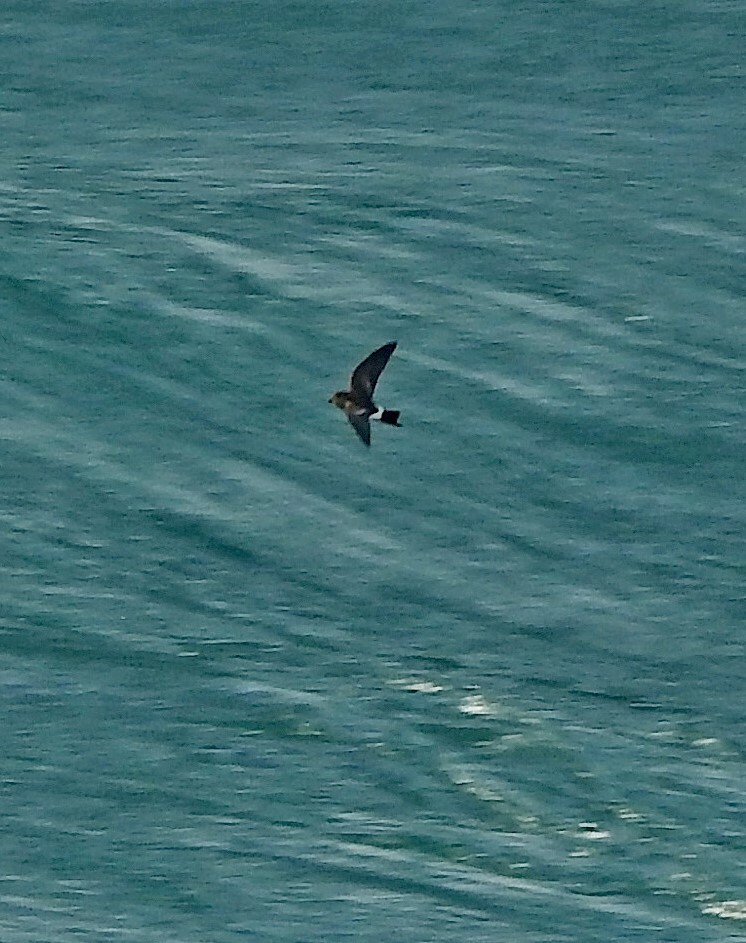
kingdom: Animalia
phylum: Chordata
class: Aves
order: Procellariiformes
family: Hydrobatidae
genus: Oceanites
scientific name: Oceanites oceanicus
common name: Wilson's storm petrel
